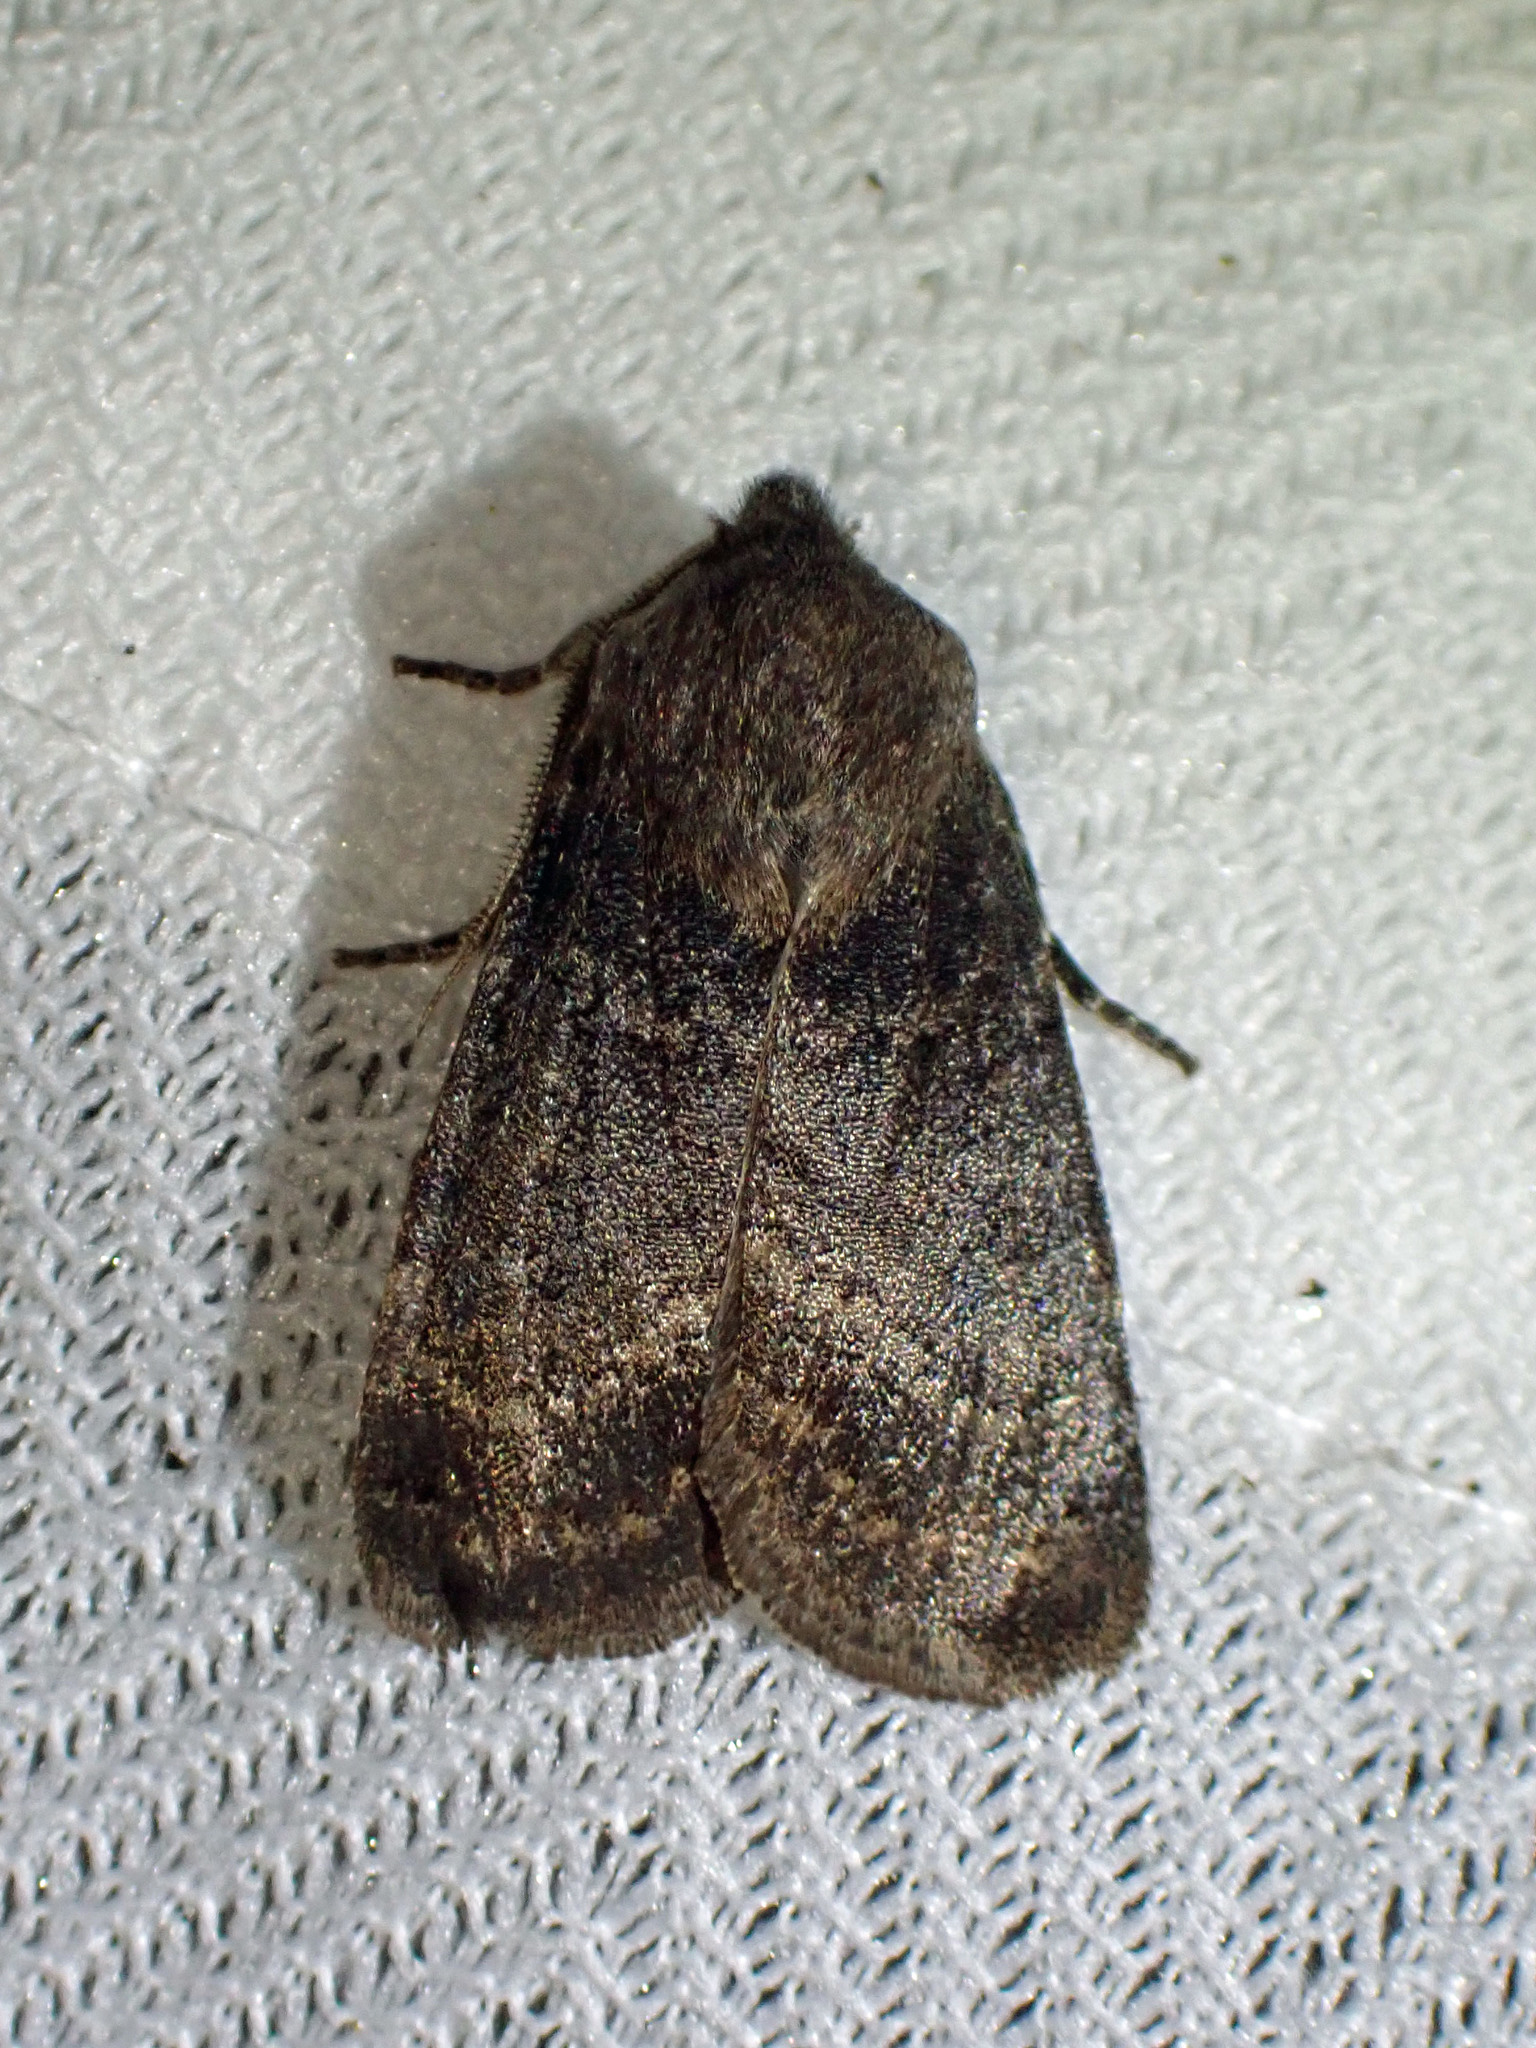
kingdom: Animalia
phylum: Arthropoda
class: Insecta
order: Lepidoptera
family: Noctuidae
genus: Homoglaea
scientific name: Homoglaea hircina
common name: Goat sallow
